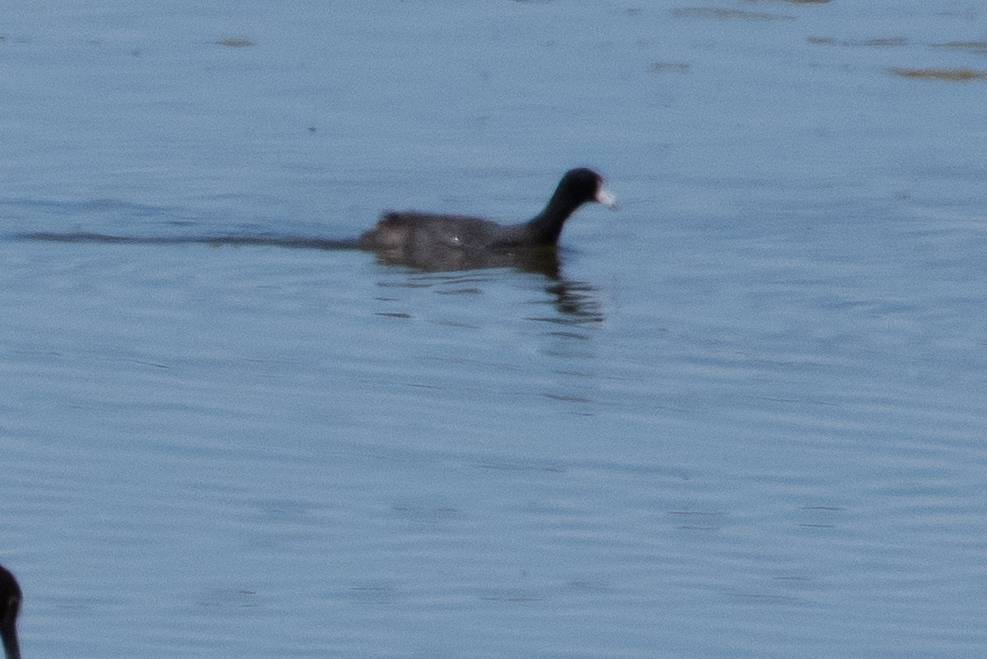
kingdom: Animalia
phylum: Chordata
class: Aves
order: Gruiformes
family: Rallidae
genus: Fulica
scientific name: Fulica americana
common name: American coot
